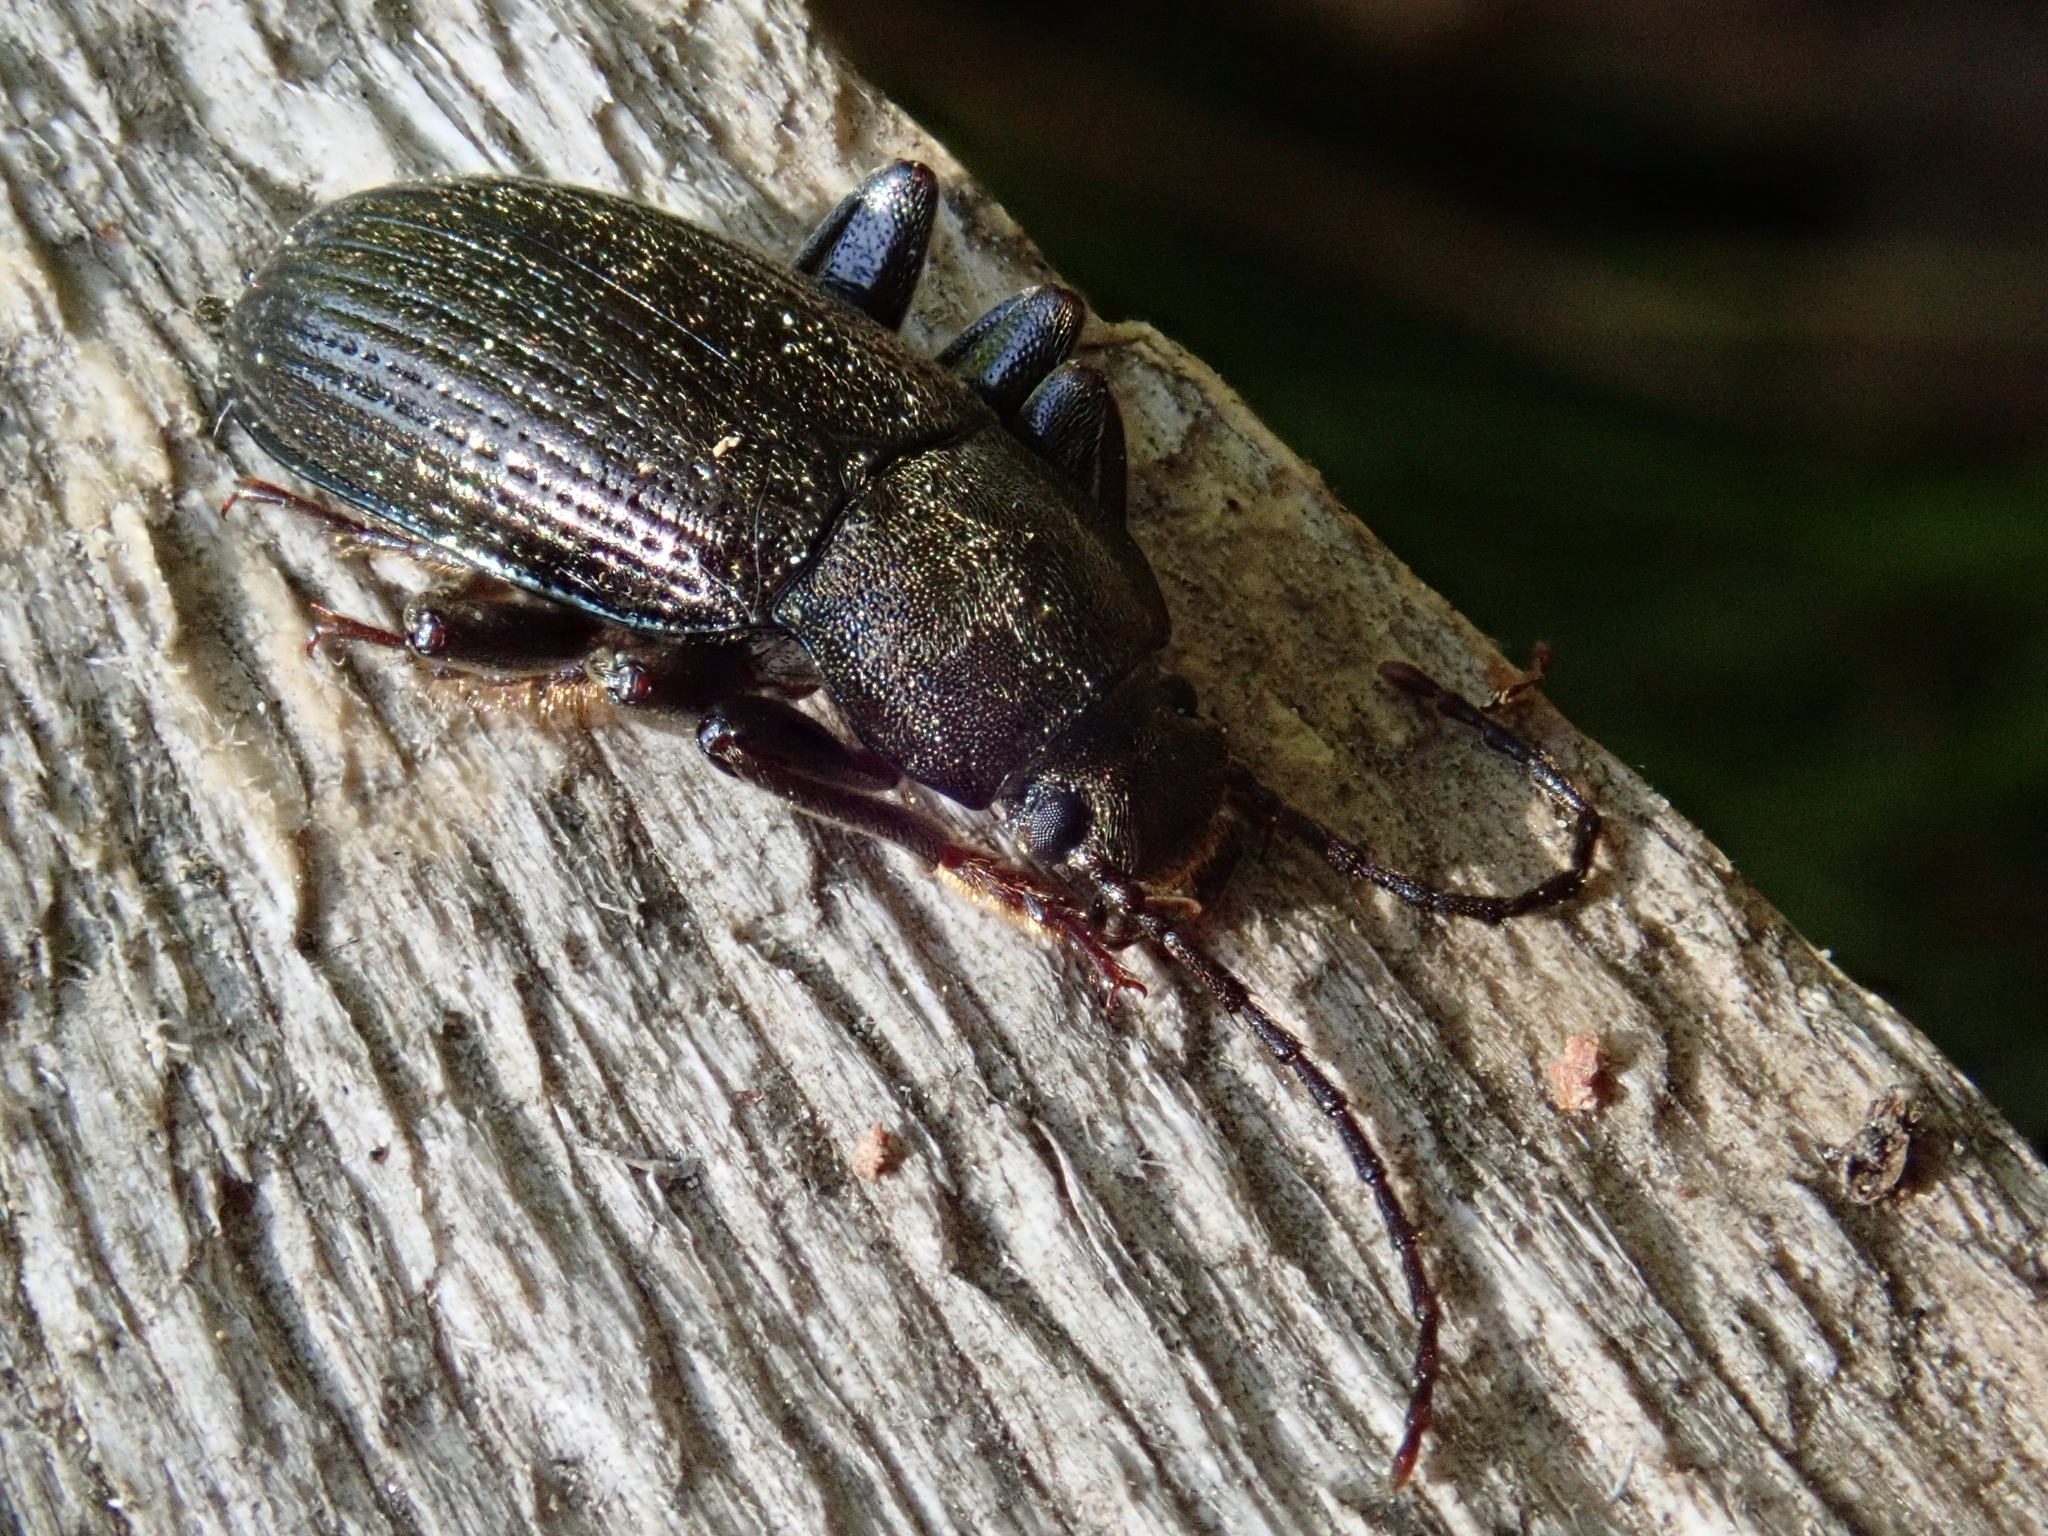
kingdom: Animalia
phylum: Arthropoda
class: Insecta
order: Coleoptera
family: Tenebrionidae
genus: Stenomax
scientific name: Stenomax aeneus
